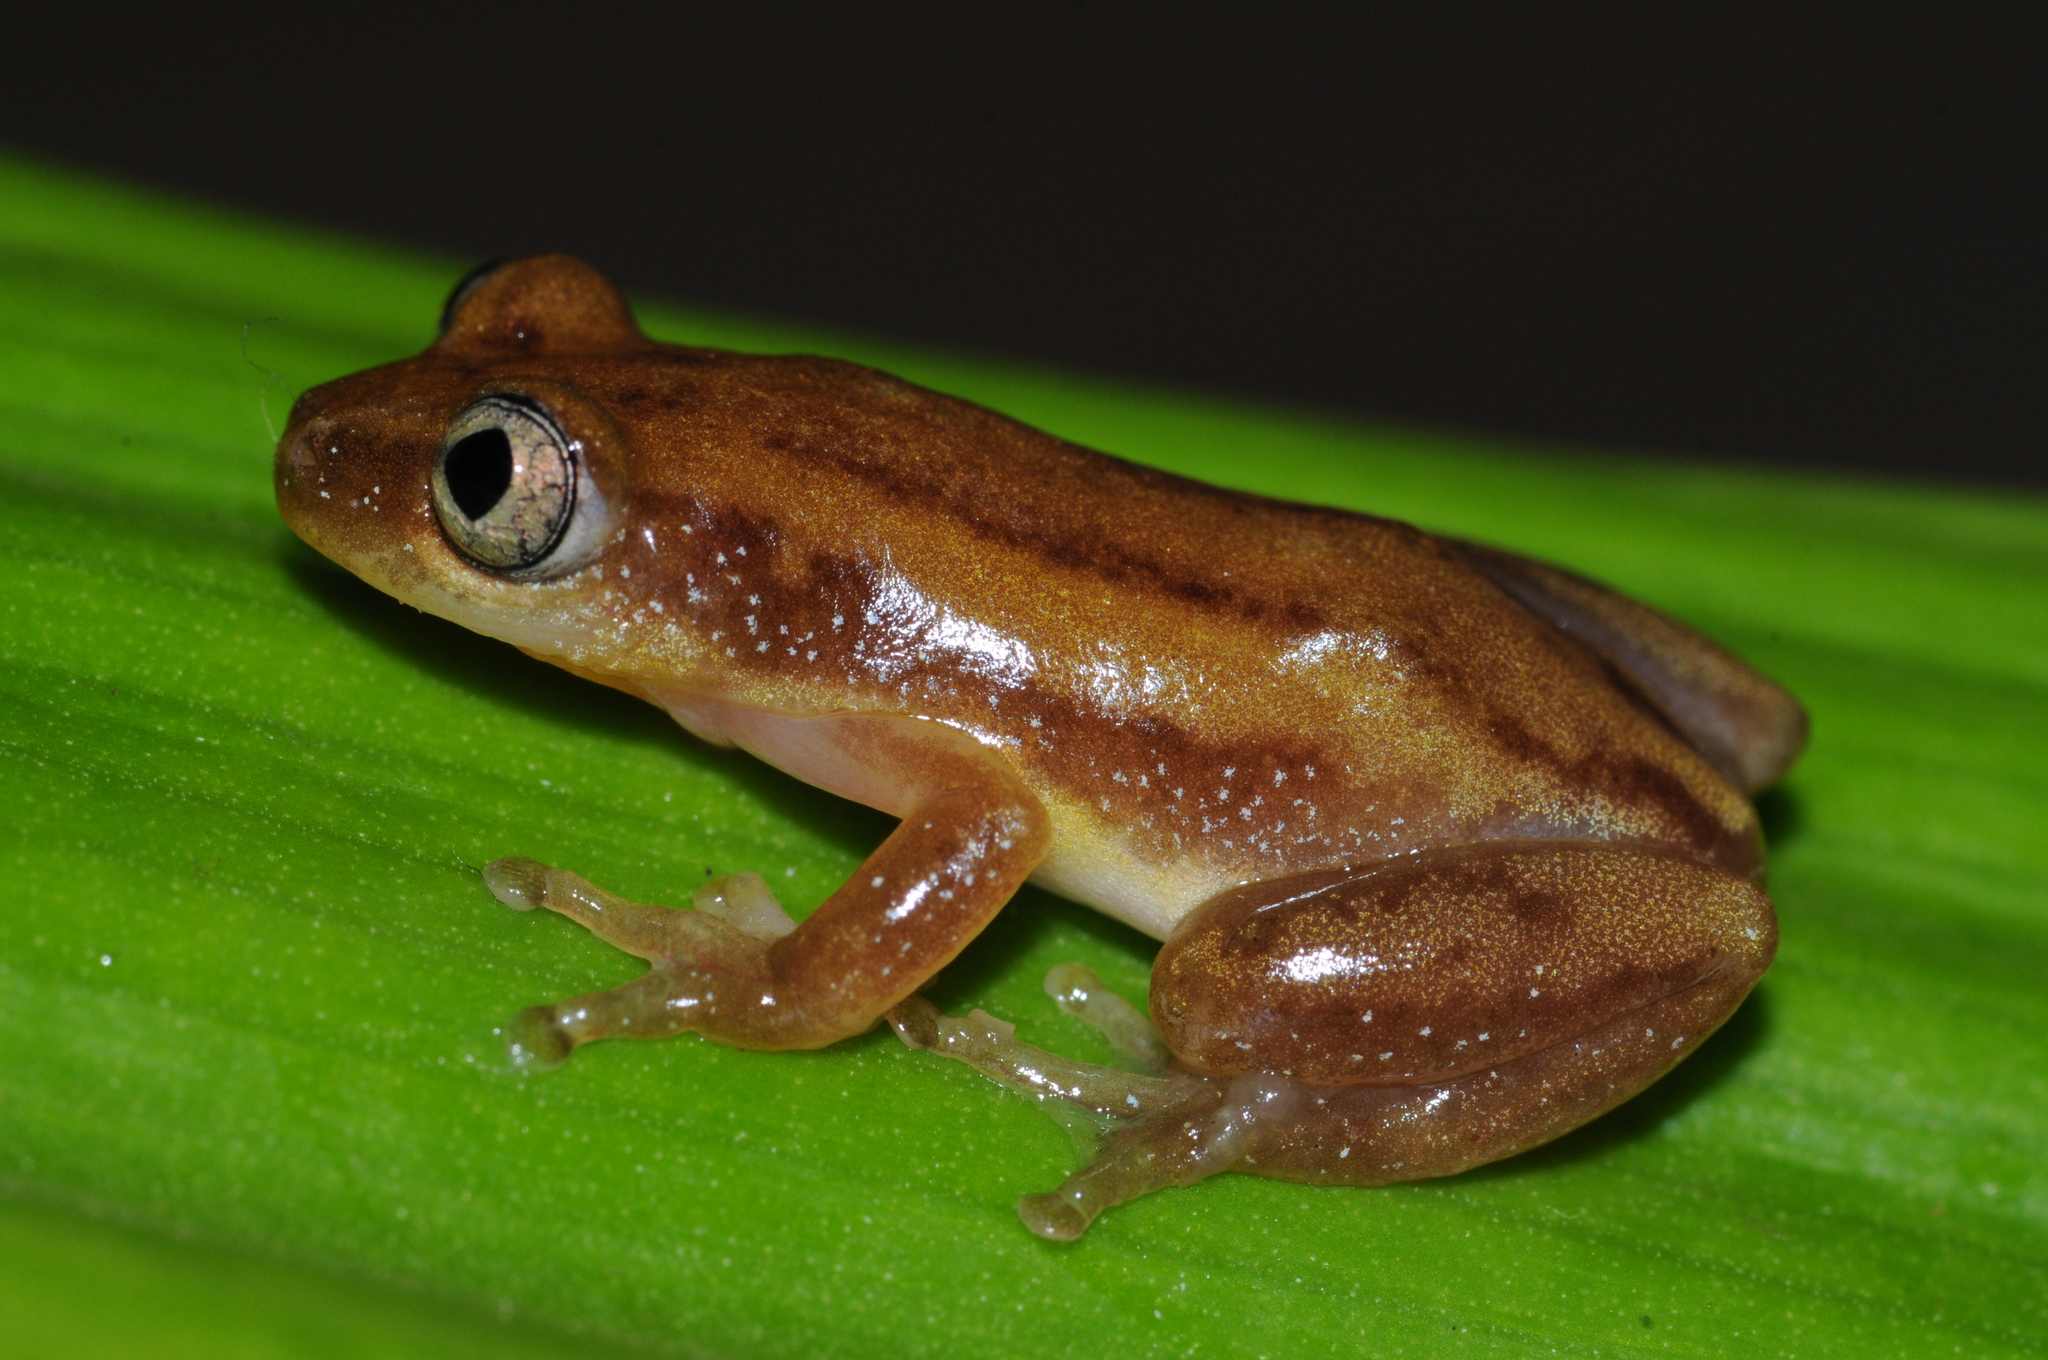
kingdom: Animalia
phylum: Chordata
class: Amphibia
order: Anura
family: Hyperoliidae
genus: Afrixalus
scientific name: Afrixalus brachycnemis
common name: Lesser banana frog
